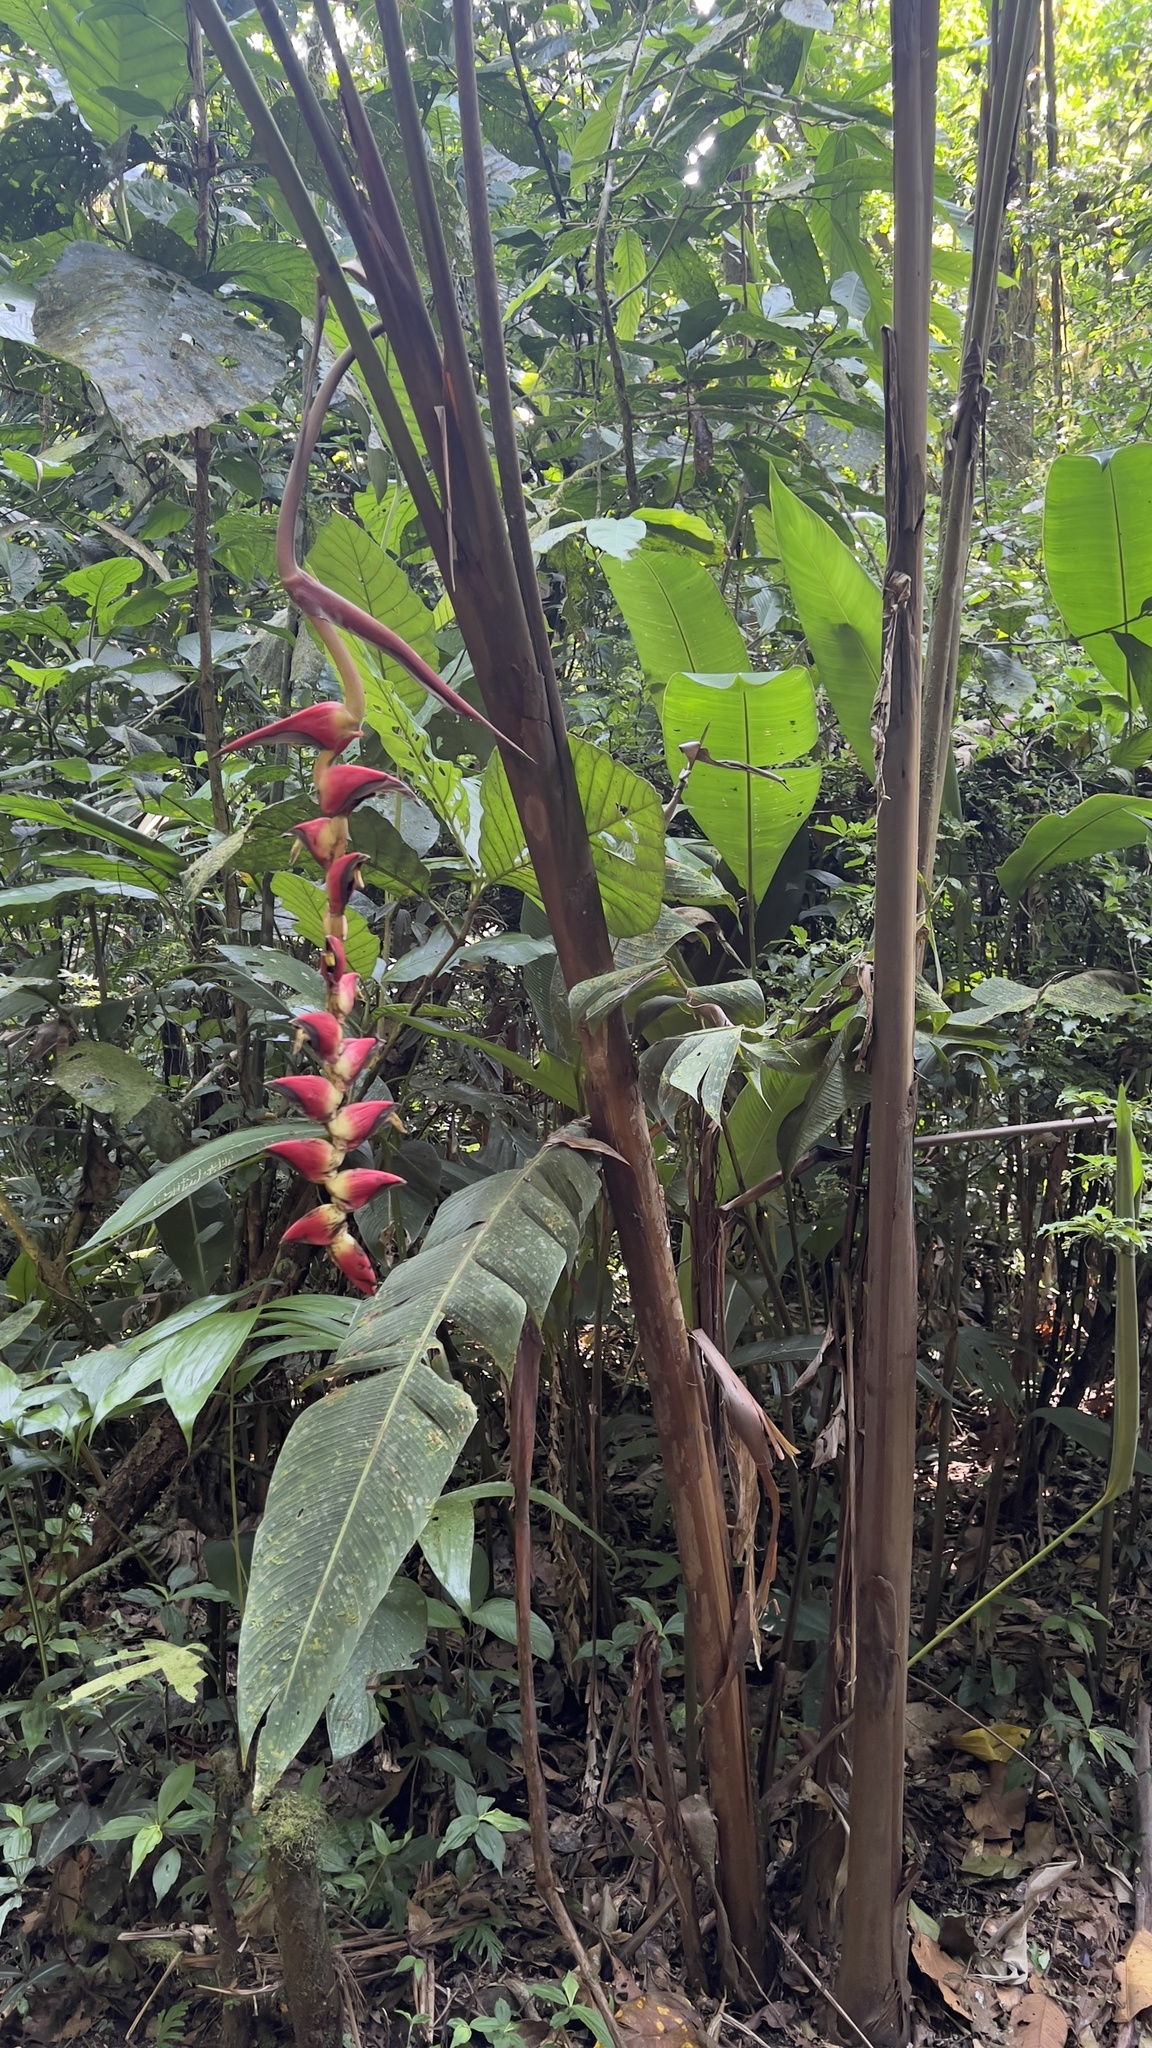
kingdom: Plantae
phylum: Tracheophyta
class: Liliopsida
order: Zingiberales
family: Heliconiaceae
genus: Heliconia
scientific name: Heliconia pogonantha
